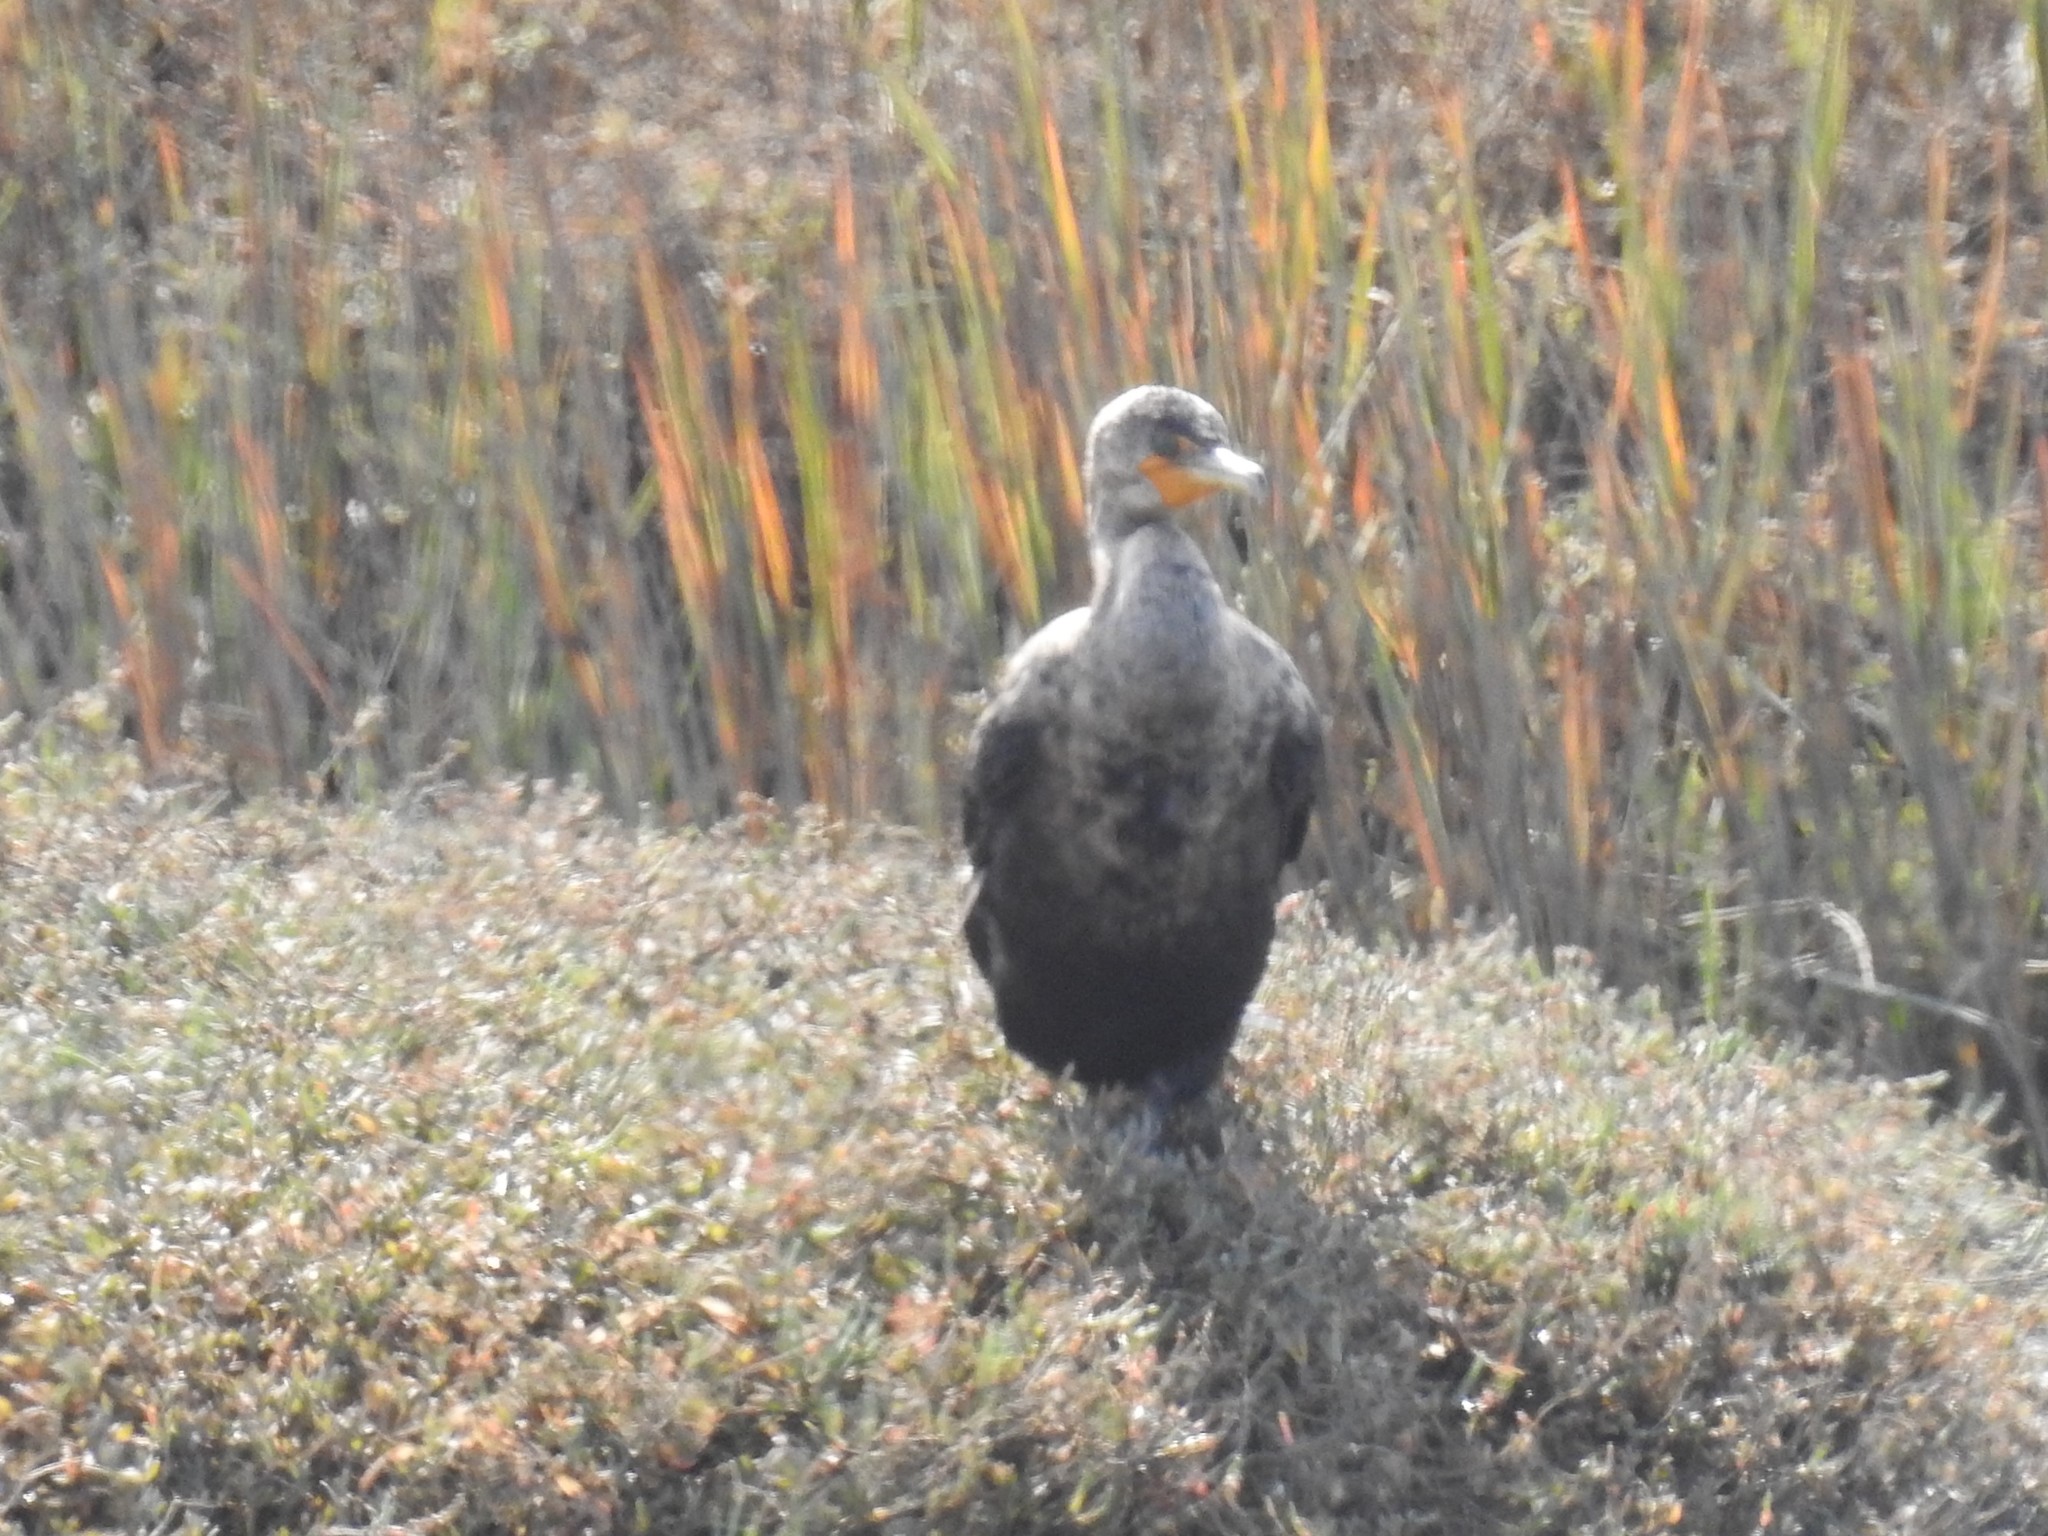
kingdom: Animalia
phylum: Chordata
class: Aves
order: Suliformes
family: Phalacrocoracidae
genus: Phalacrocorax
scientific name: Phalacrocorax auritus
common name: Double-crested cormorant
